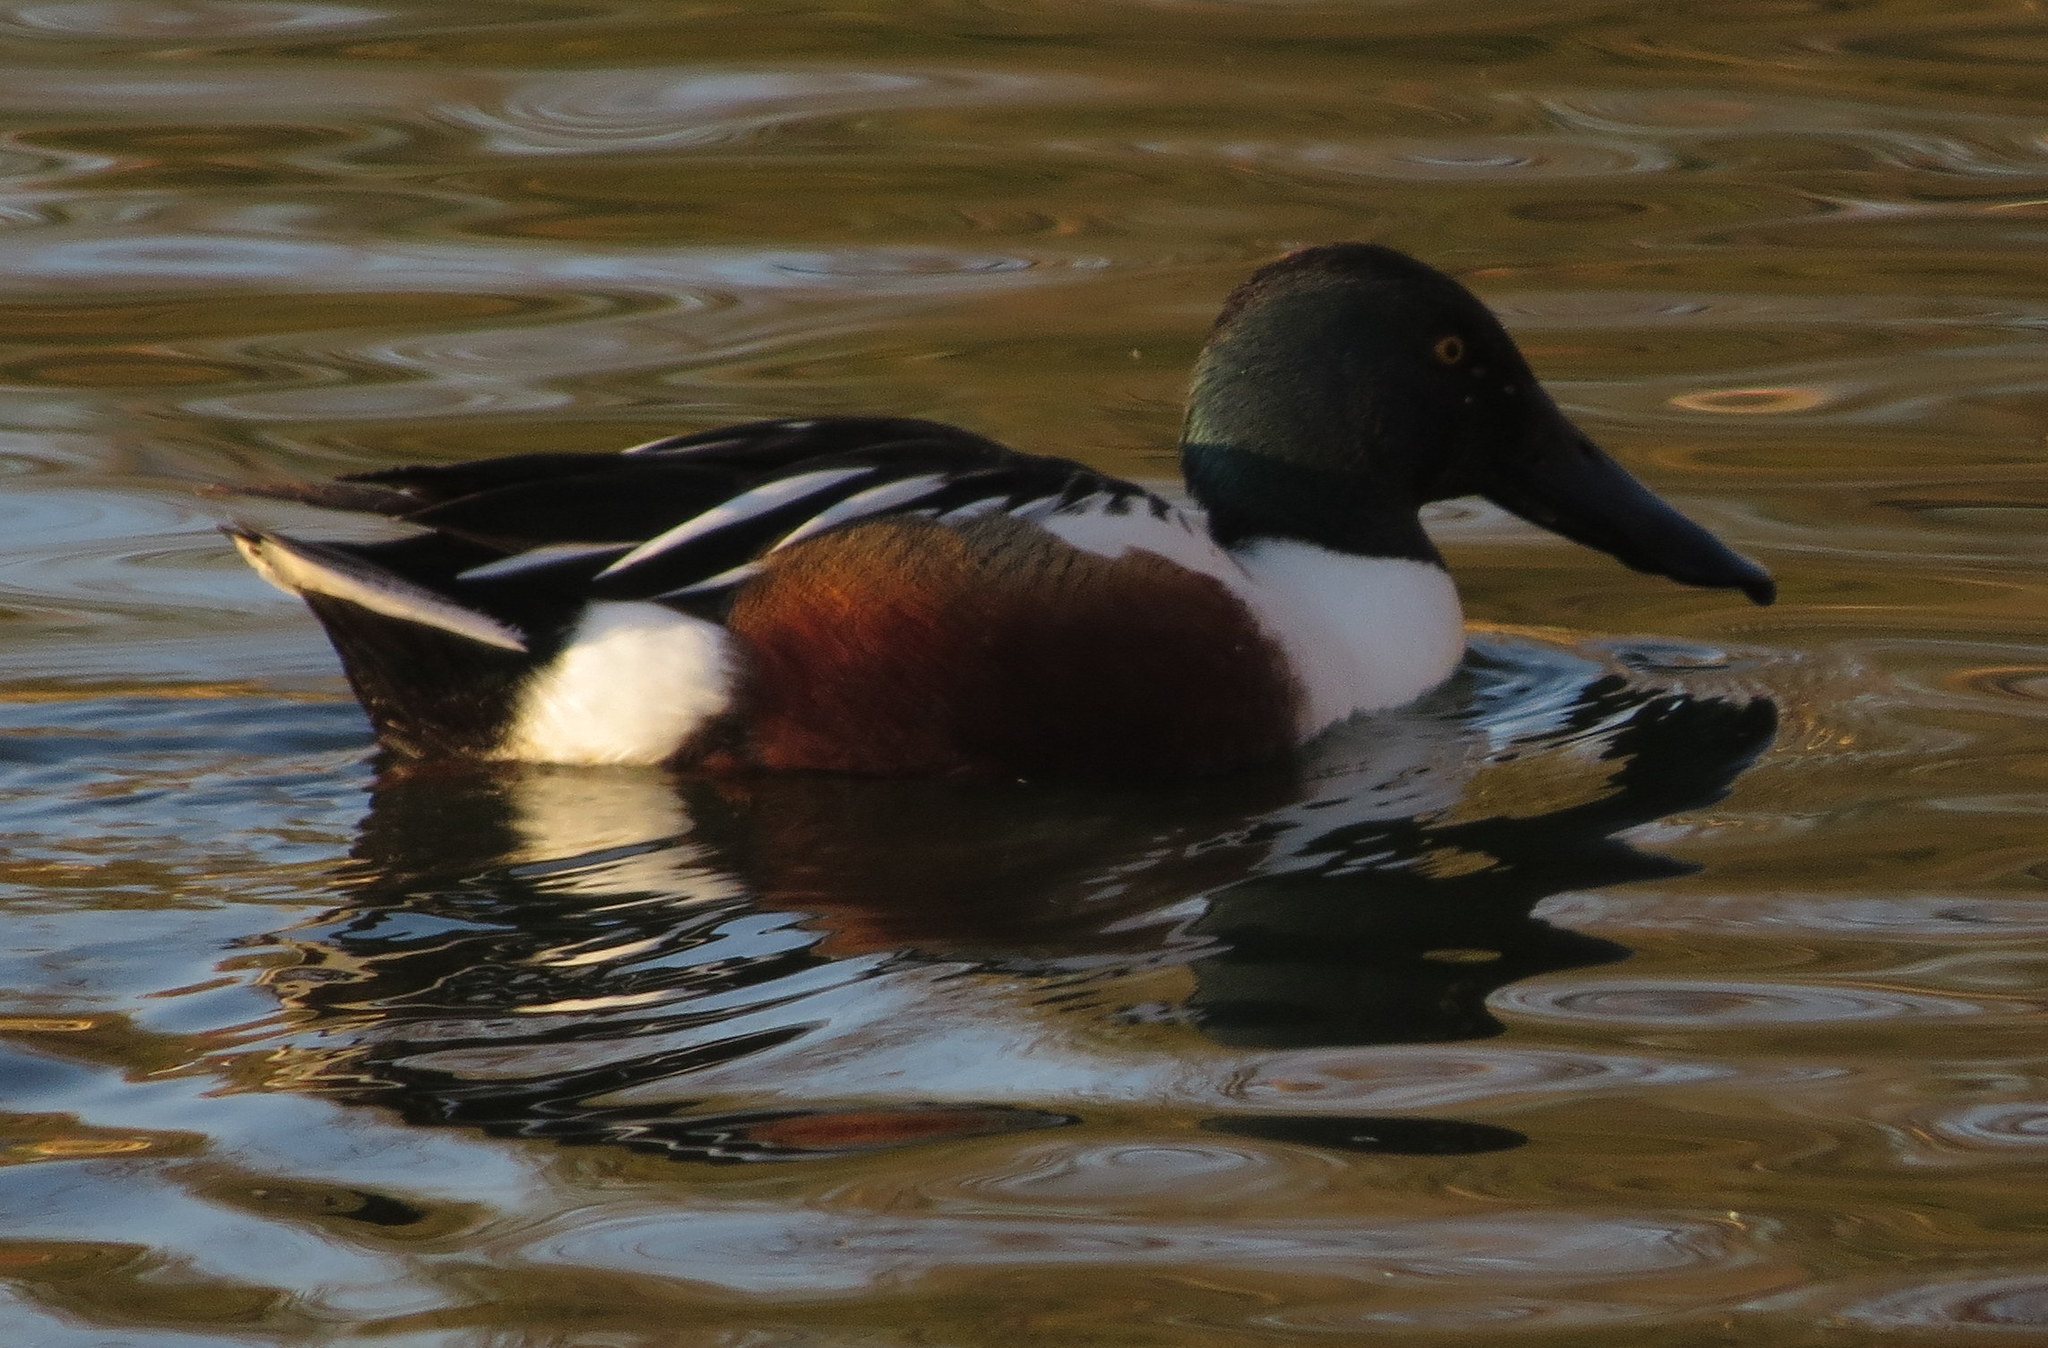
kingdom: Animalia
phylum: Chordata
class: Aves
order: Anseriformes
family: Anatidae
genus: Spatula
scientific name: Spatula clypeata
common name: Northern shoveler
